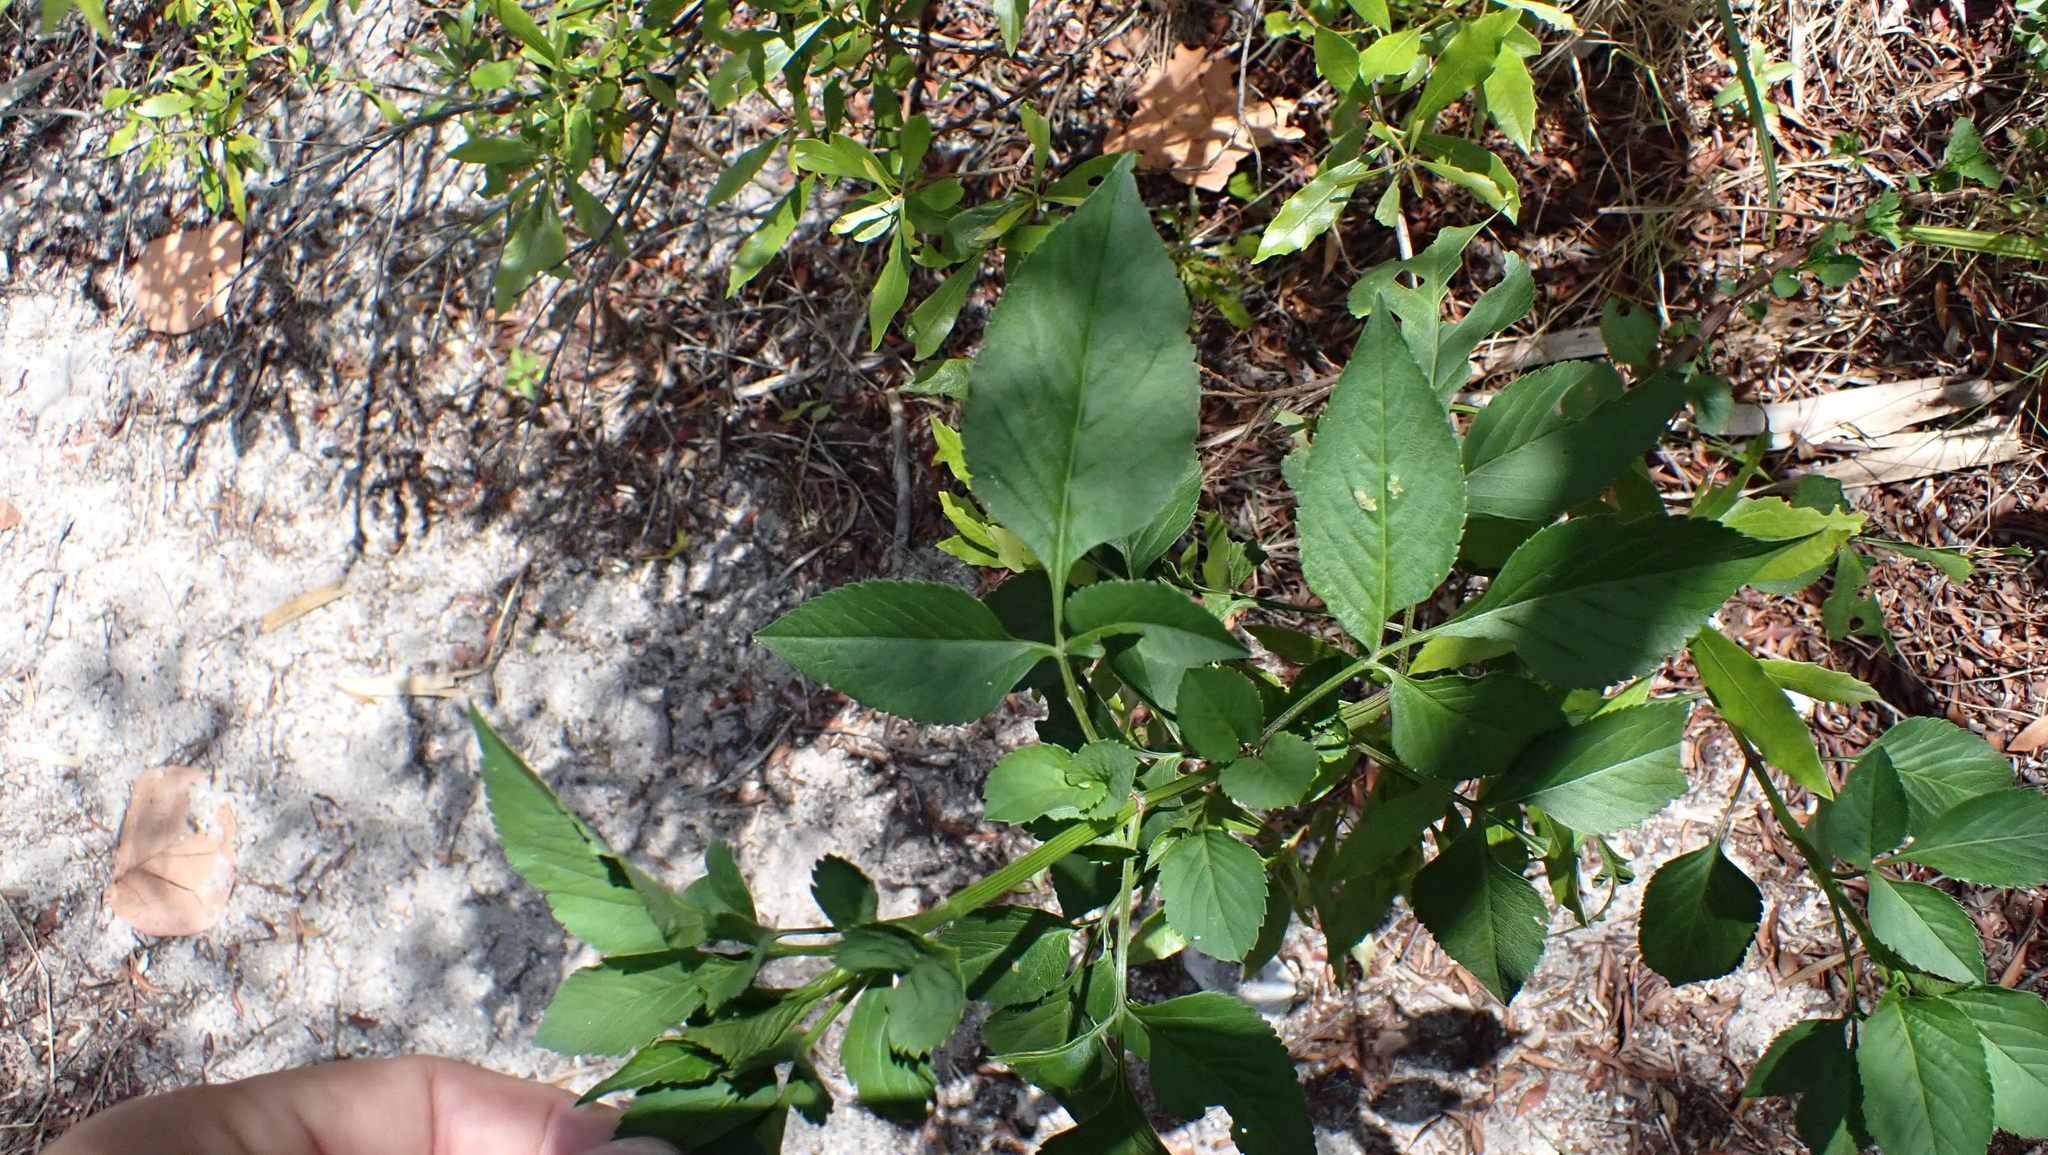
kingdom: Plantae
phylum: Tracheophyta
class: Magnoliopsida
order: Asterales
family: Asteraceae
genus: Bidens
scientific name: Bidens alba
